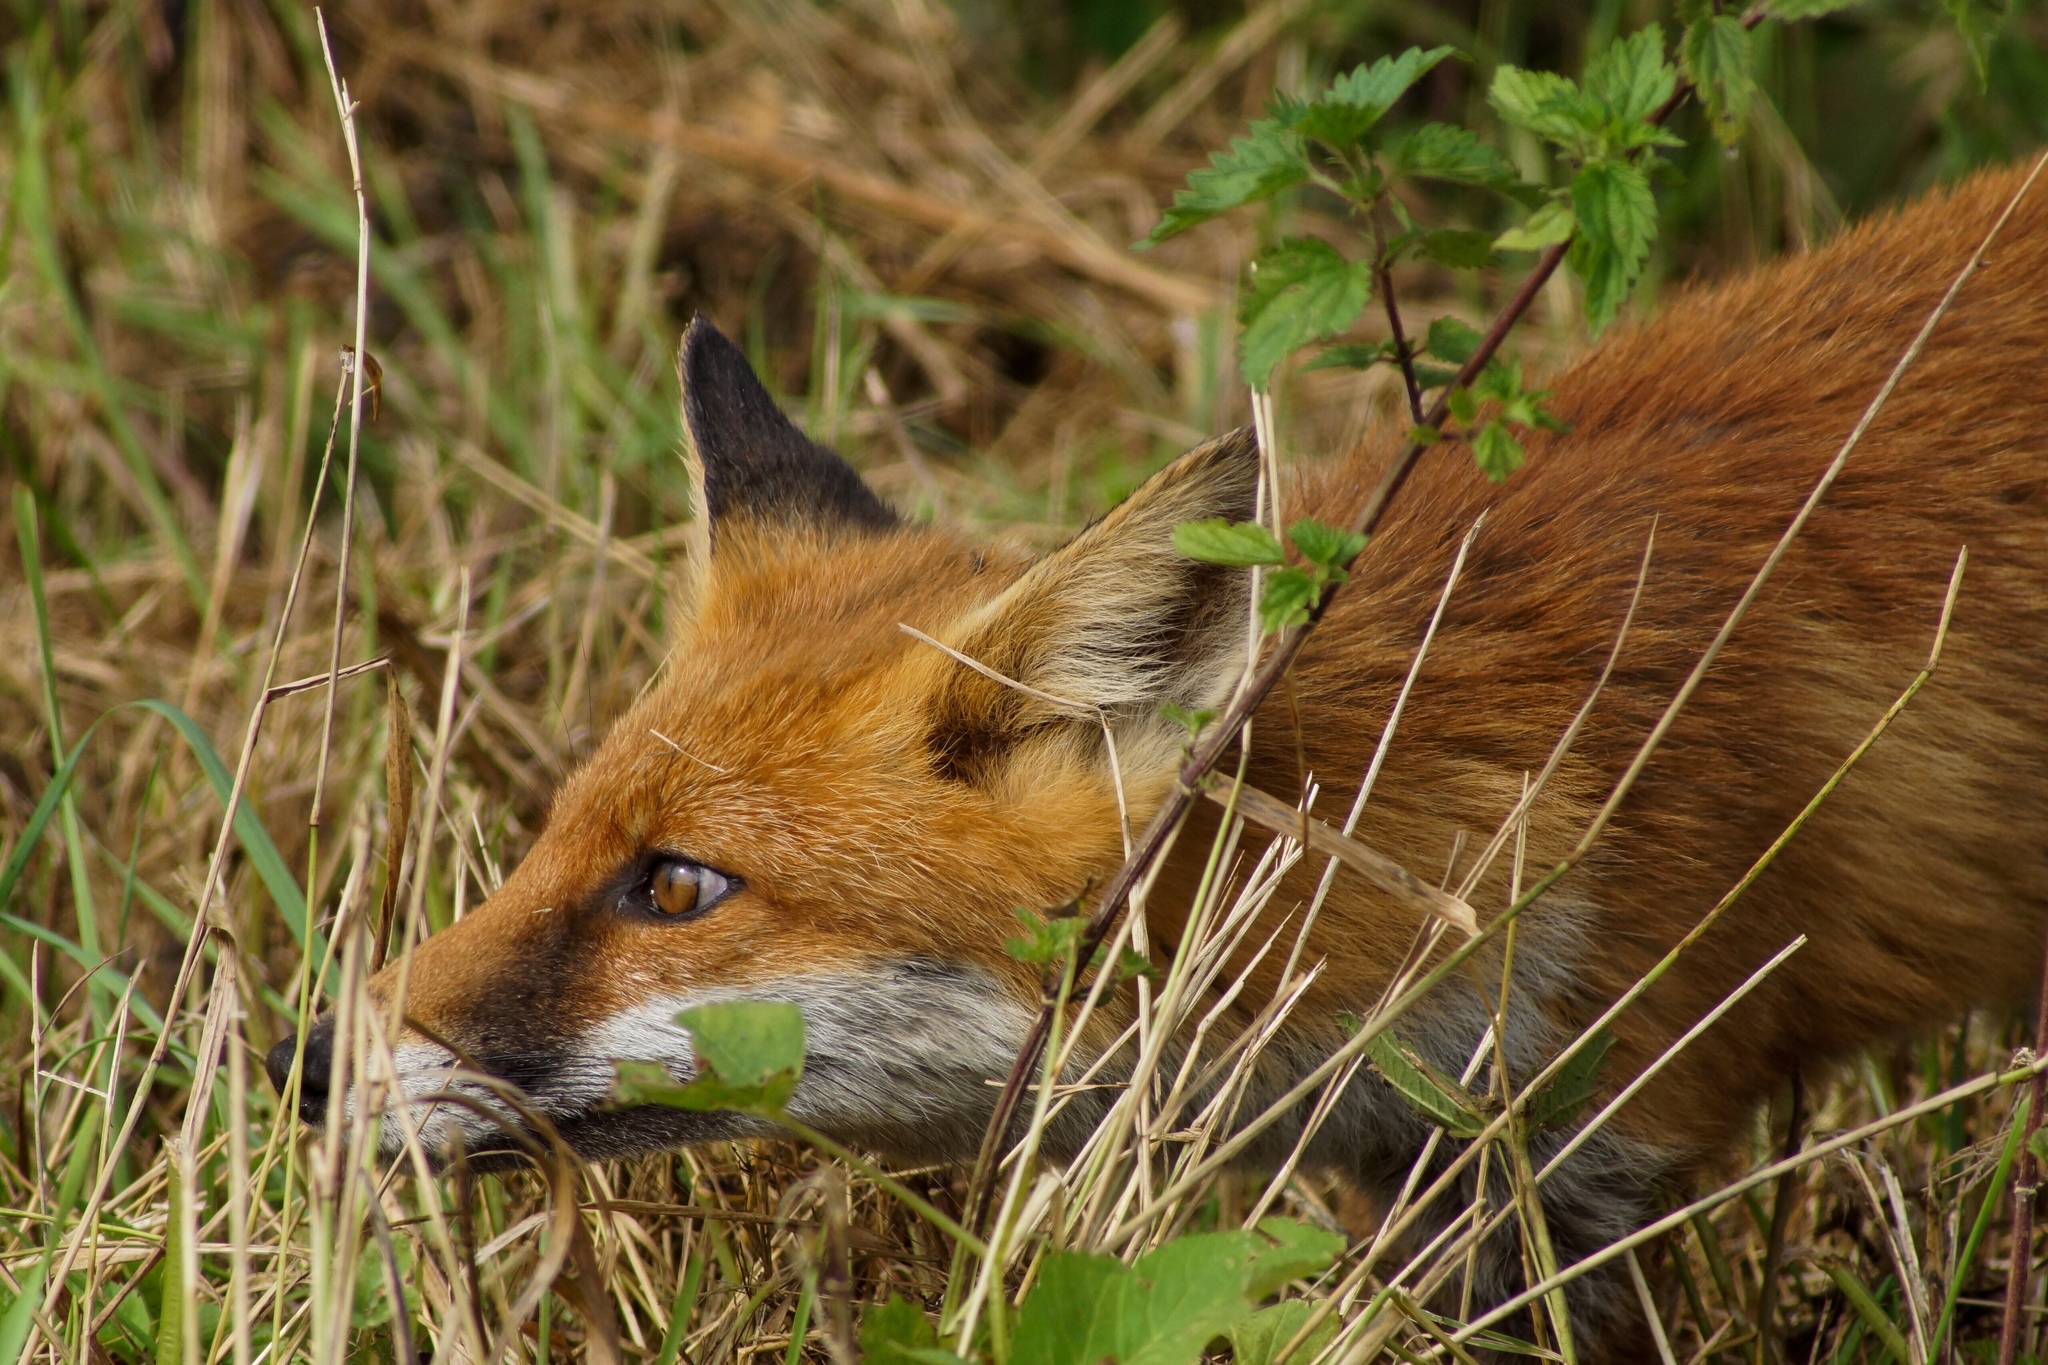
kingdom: Animalia
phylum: Chordata
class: Mammalia
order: Carnivora
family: Canidae
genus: Vulpes
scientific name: Vulpes vulpes
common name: Red fox
